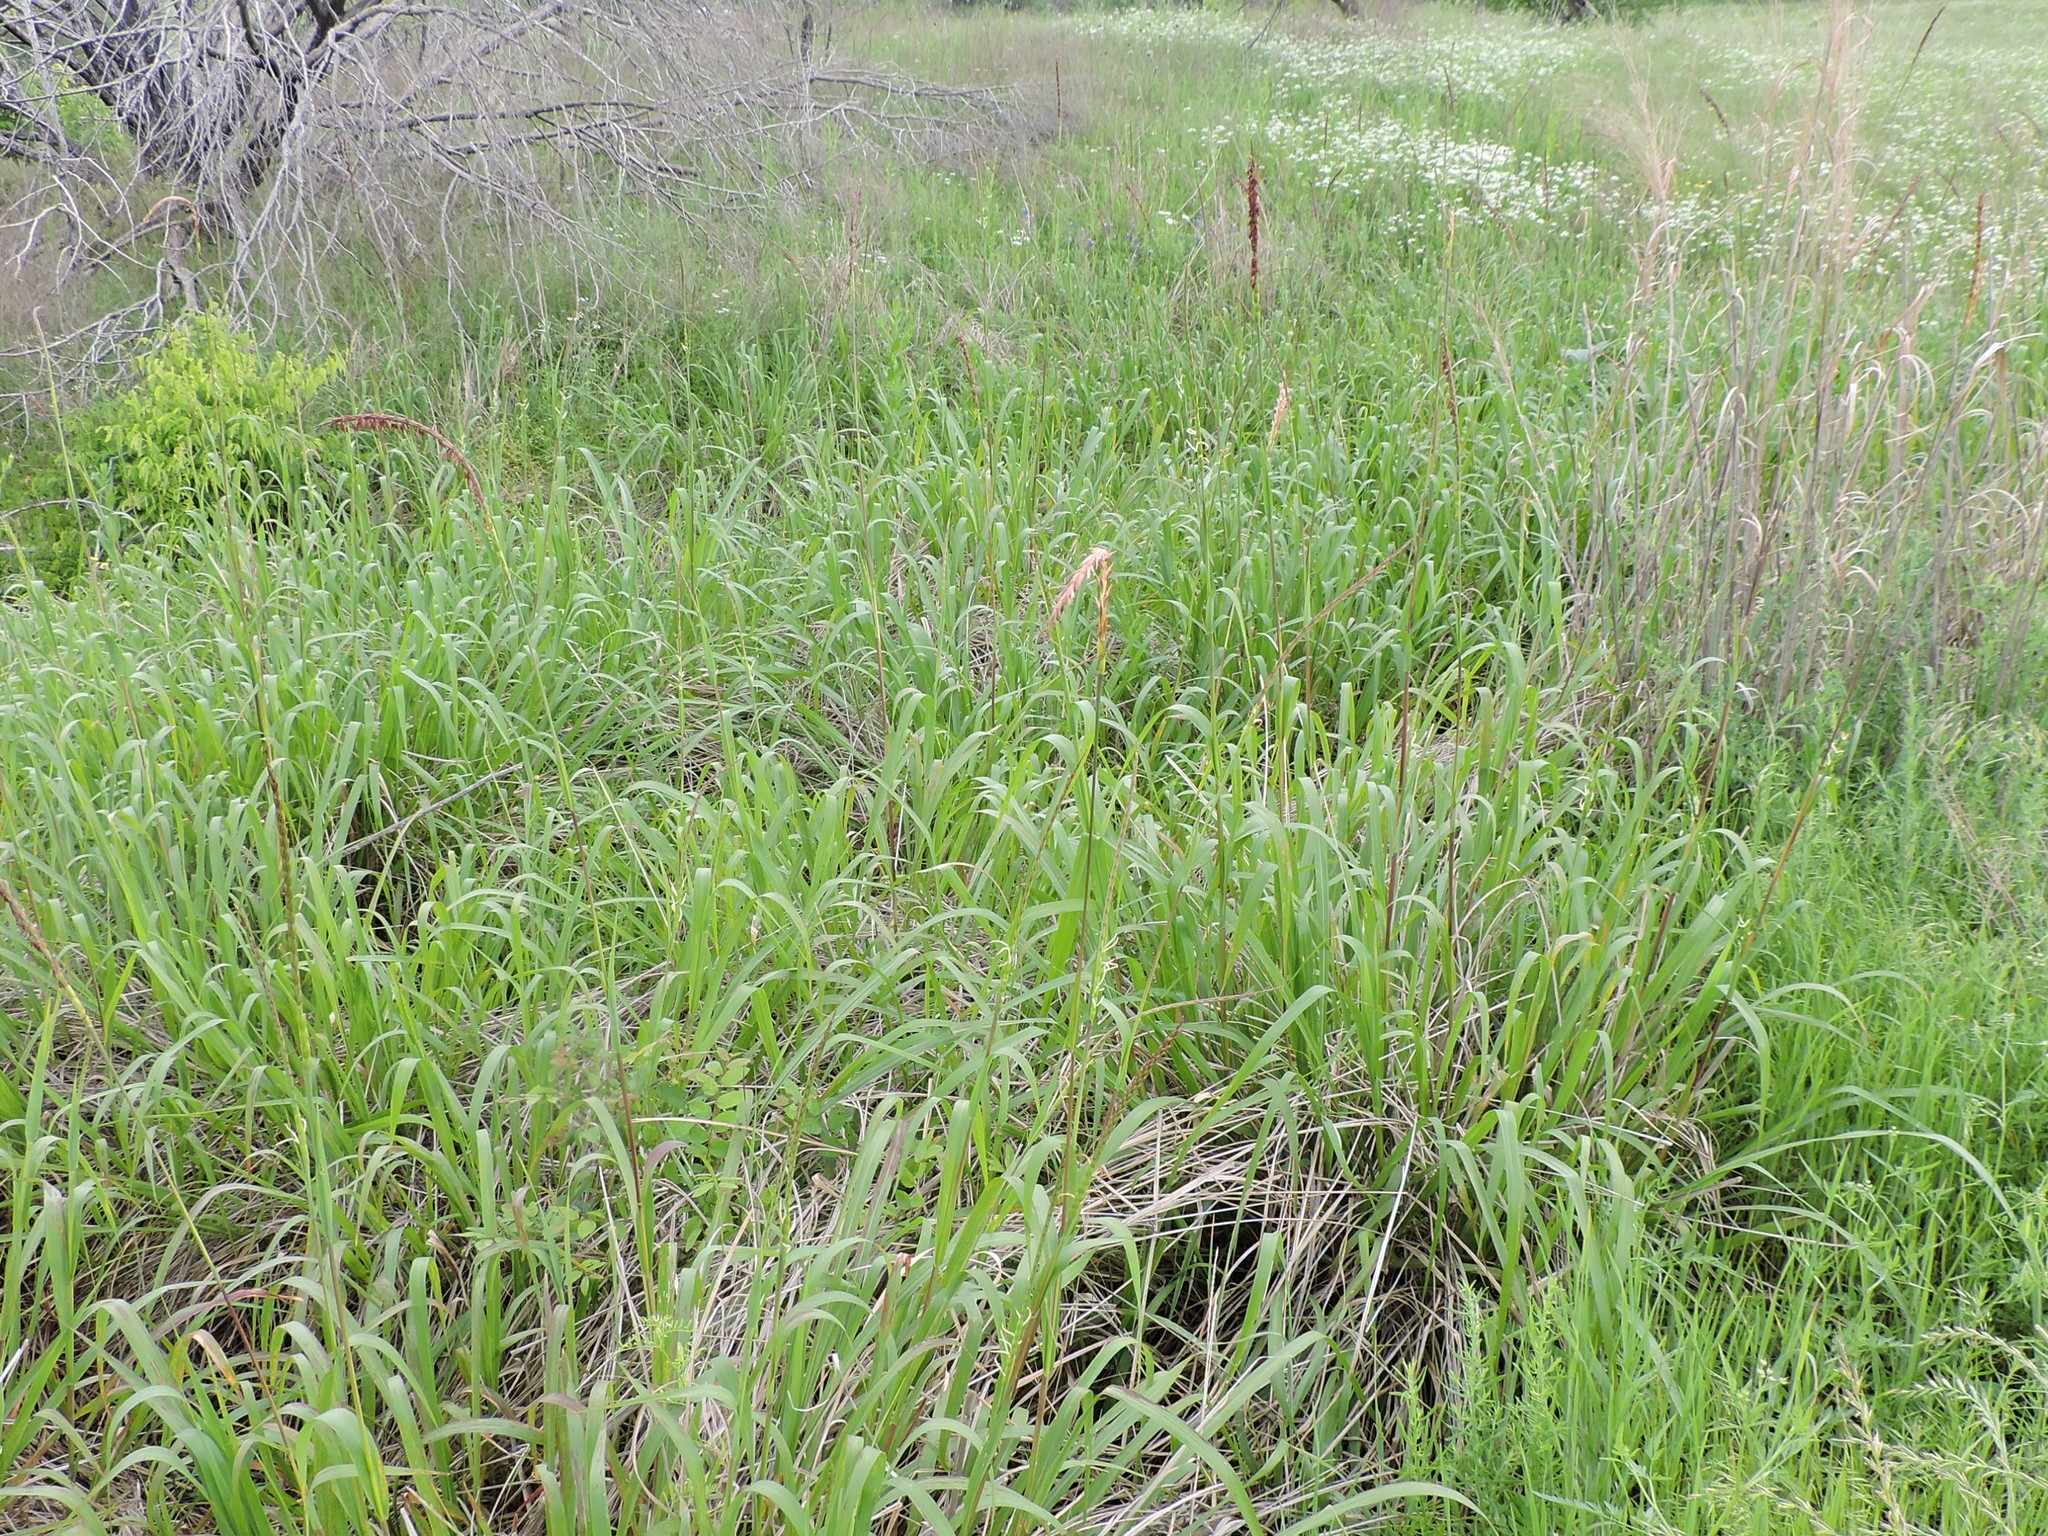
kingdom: Plantae
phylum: Tracheophyta
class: Liliopsida
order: Poales
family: Poaceae
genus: Tripsacum
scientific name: Tripsacum dactyloides
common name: Buffalo-grass
